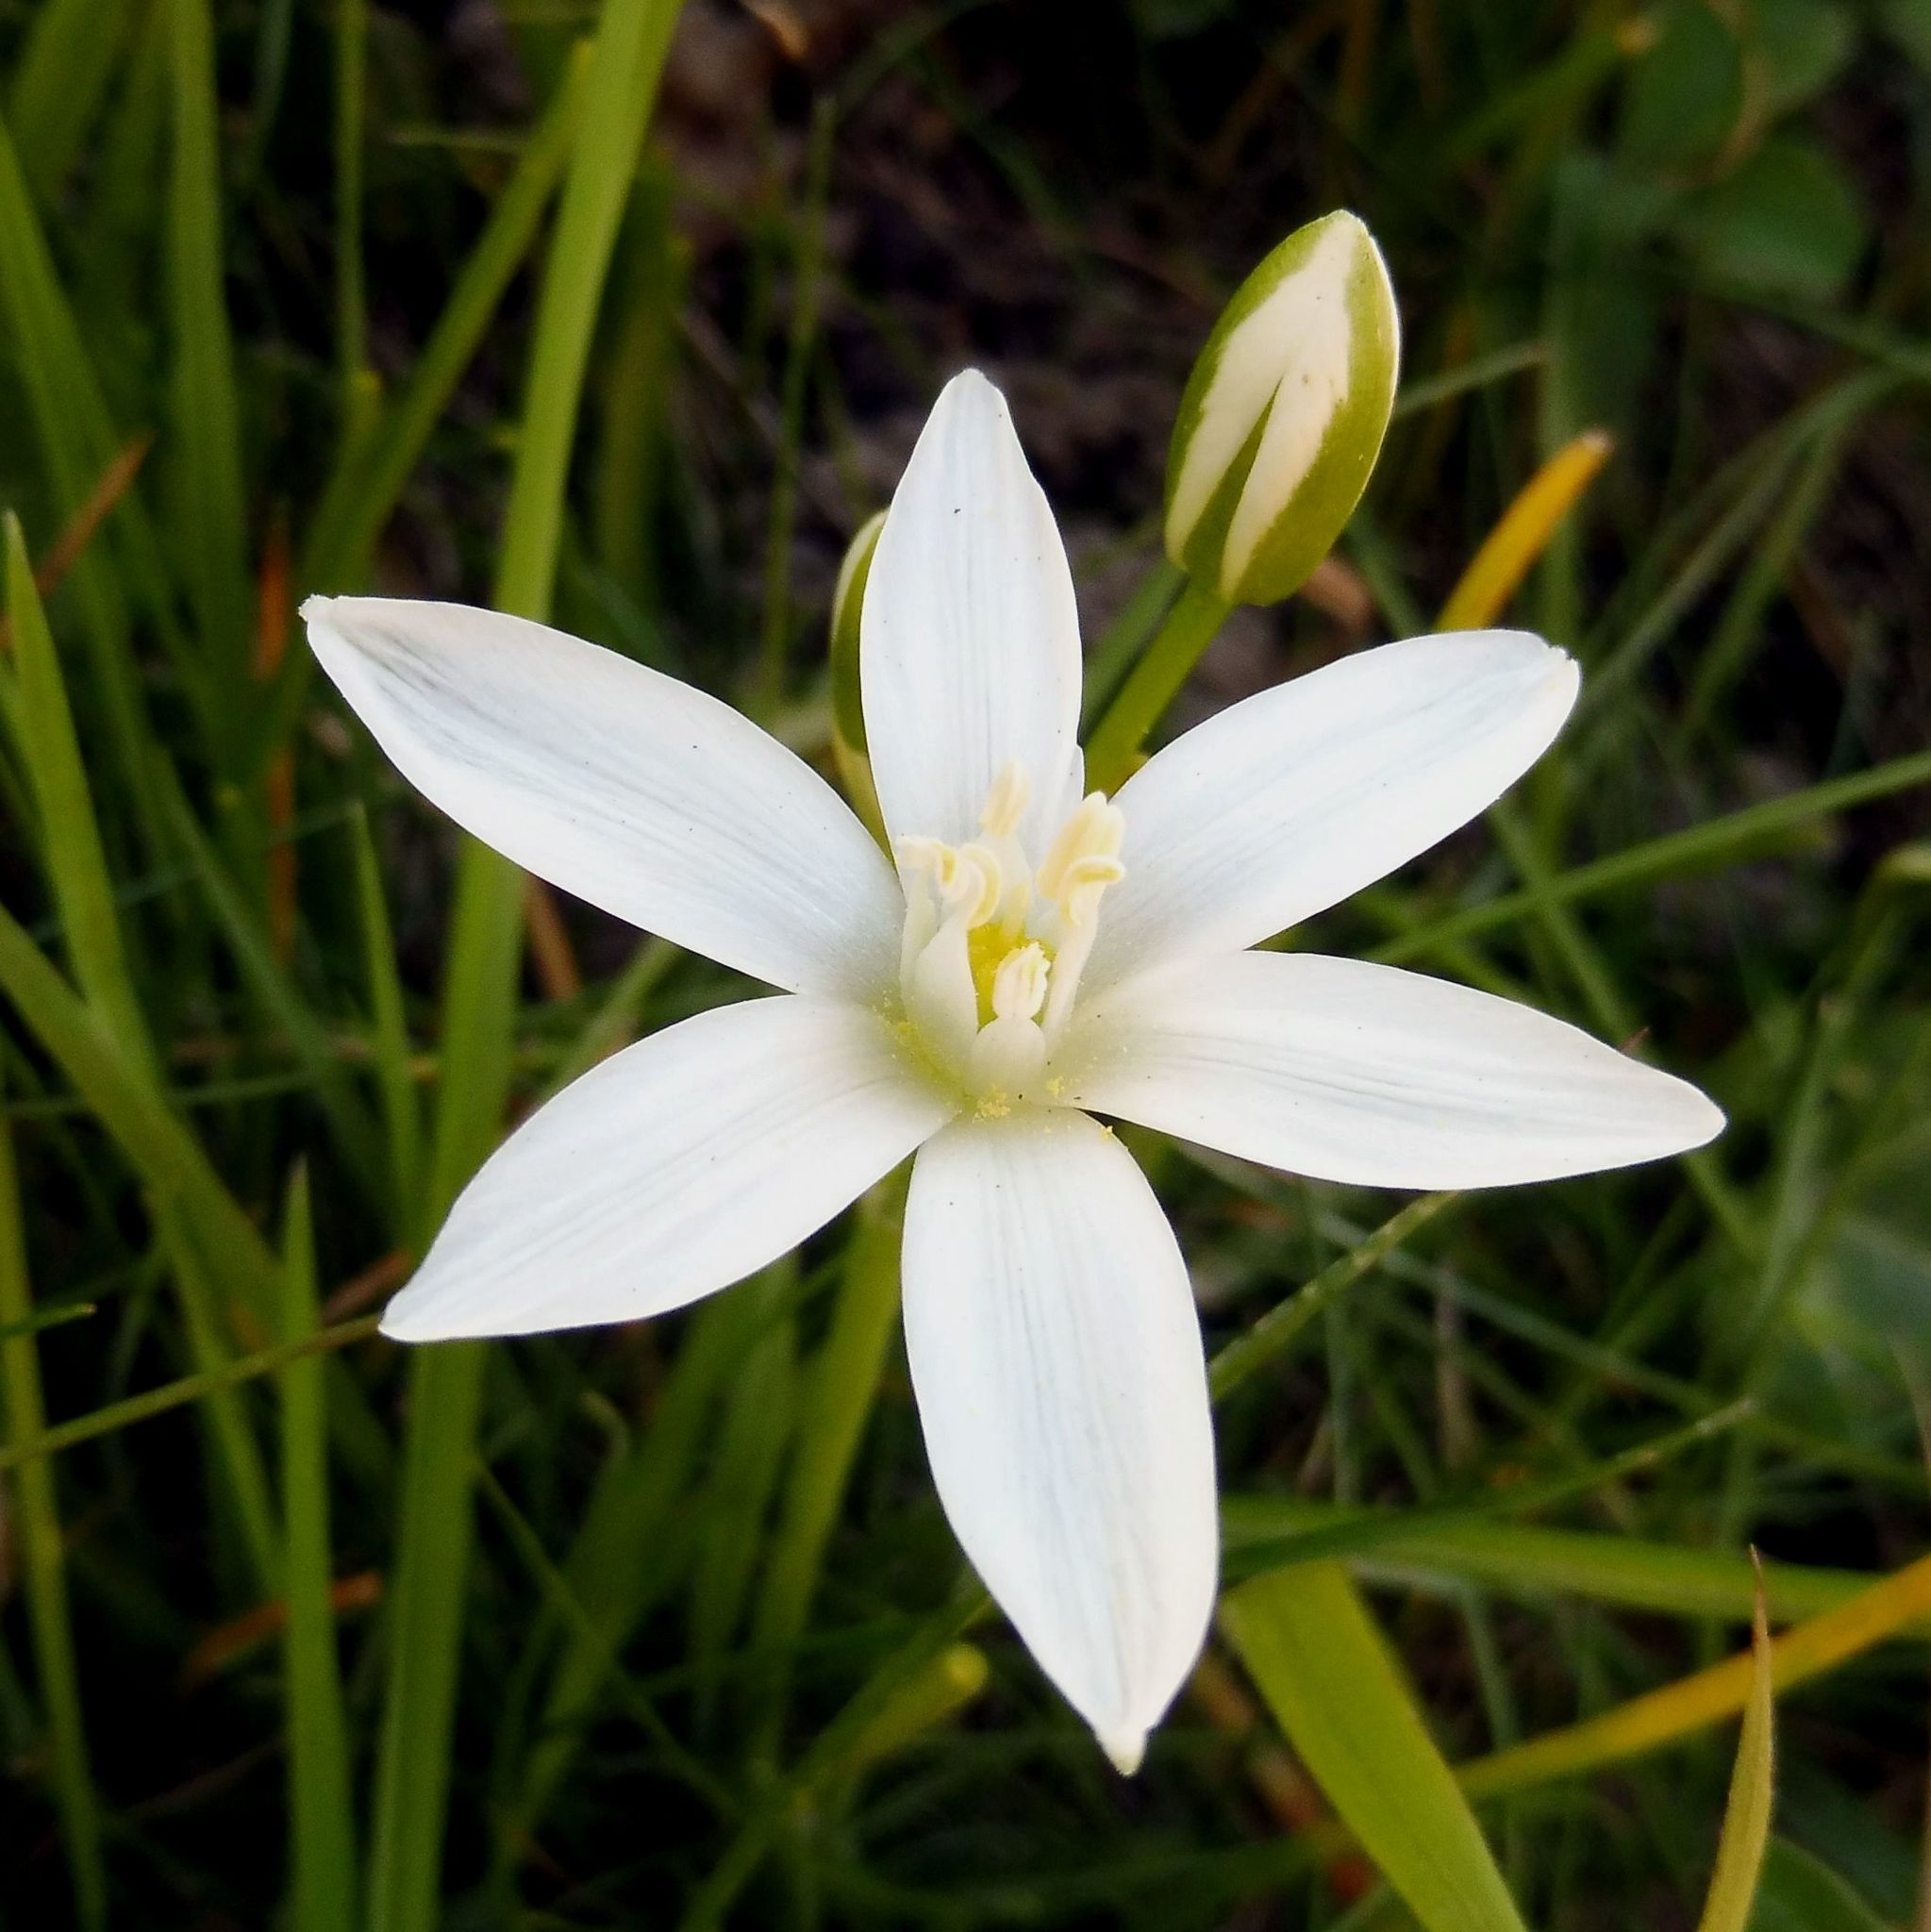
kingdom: Plantae
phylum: Tracheophyta
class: Liliopsida
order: Asparagales
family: Asparagaceae
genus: Ornithogalum
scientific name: Ornithogalum umbellatum
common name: Garden star-of-bethlehem
